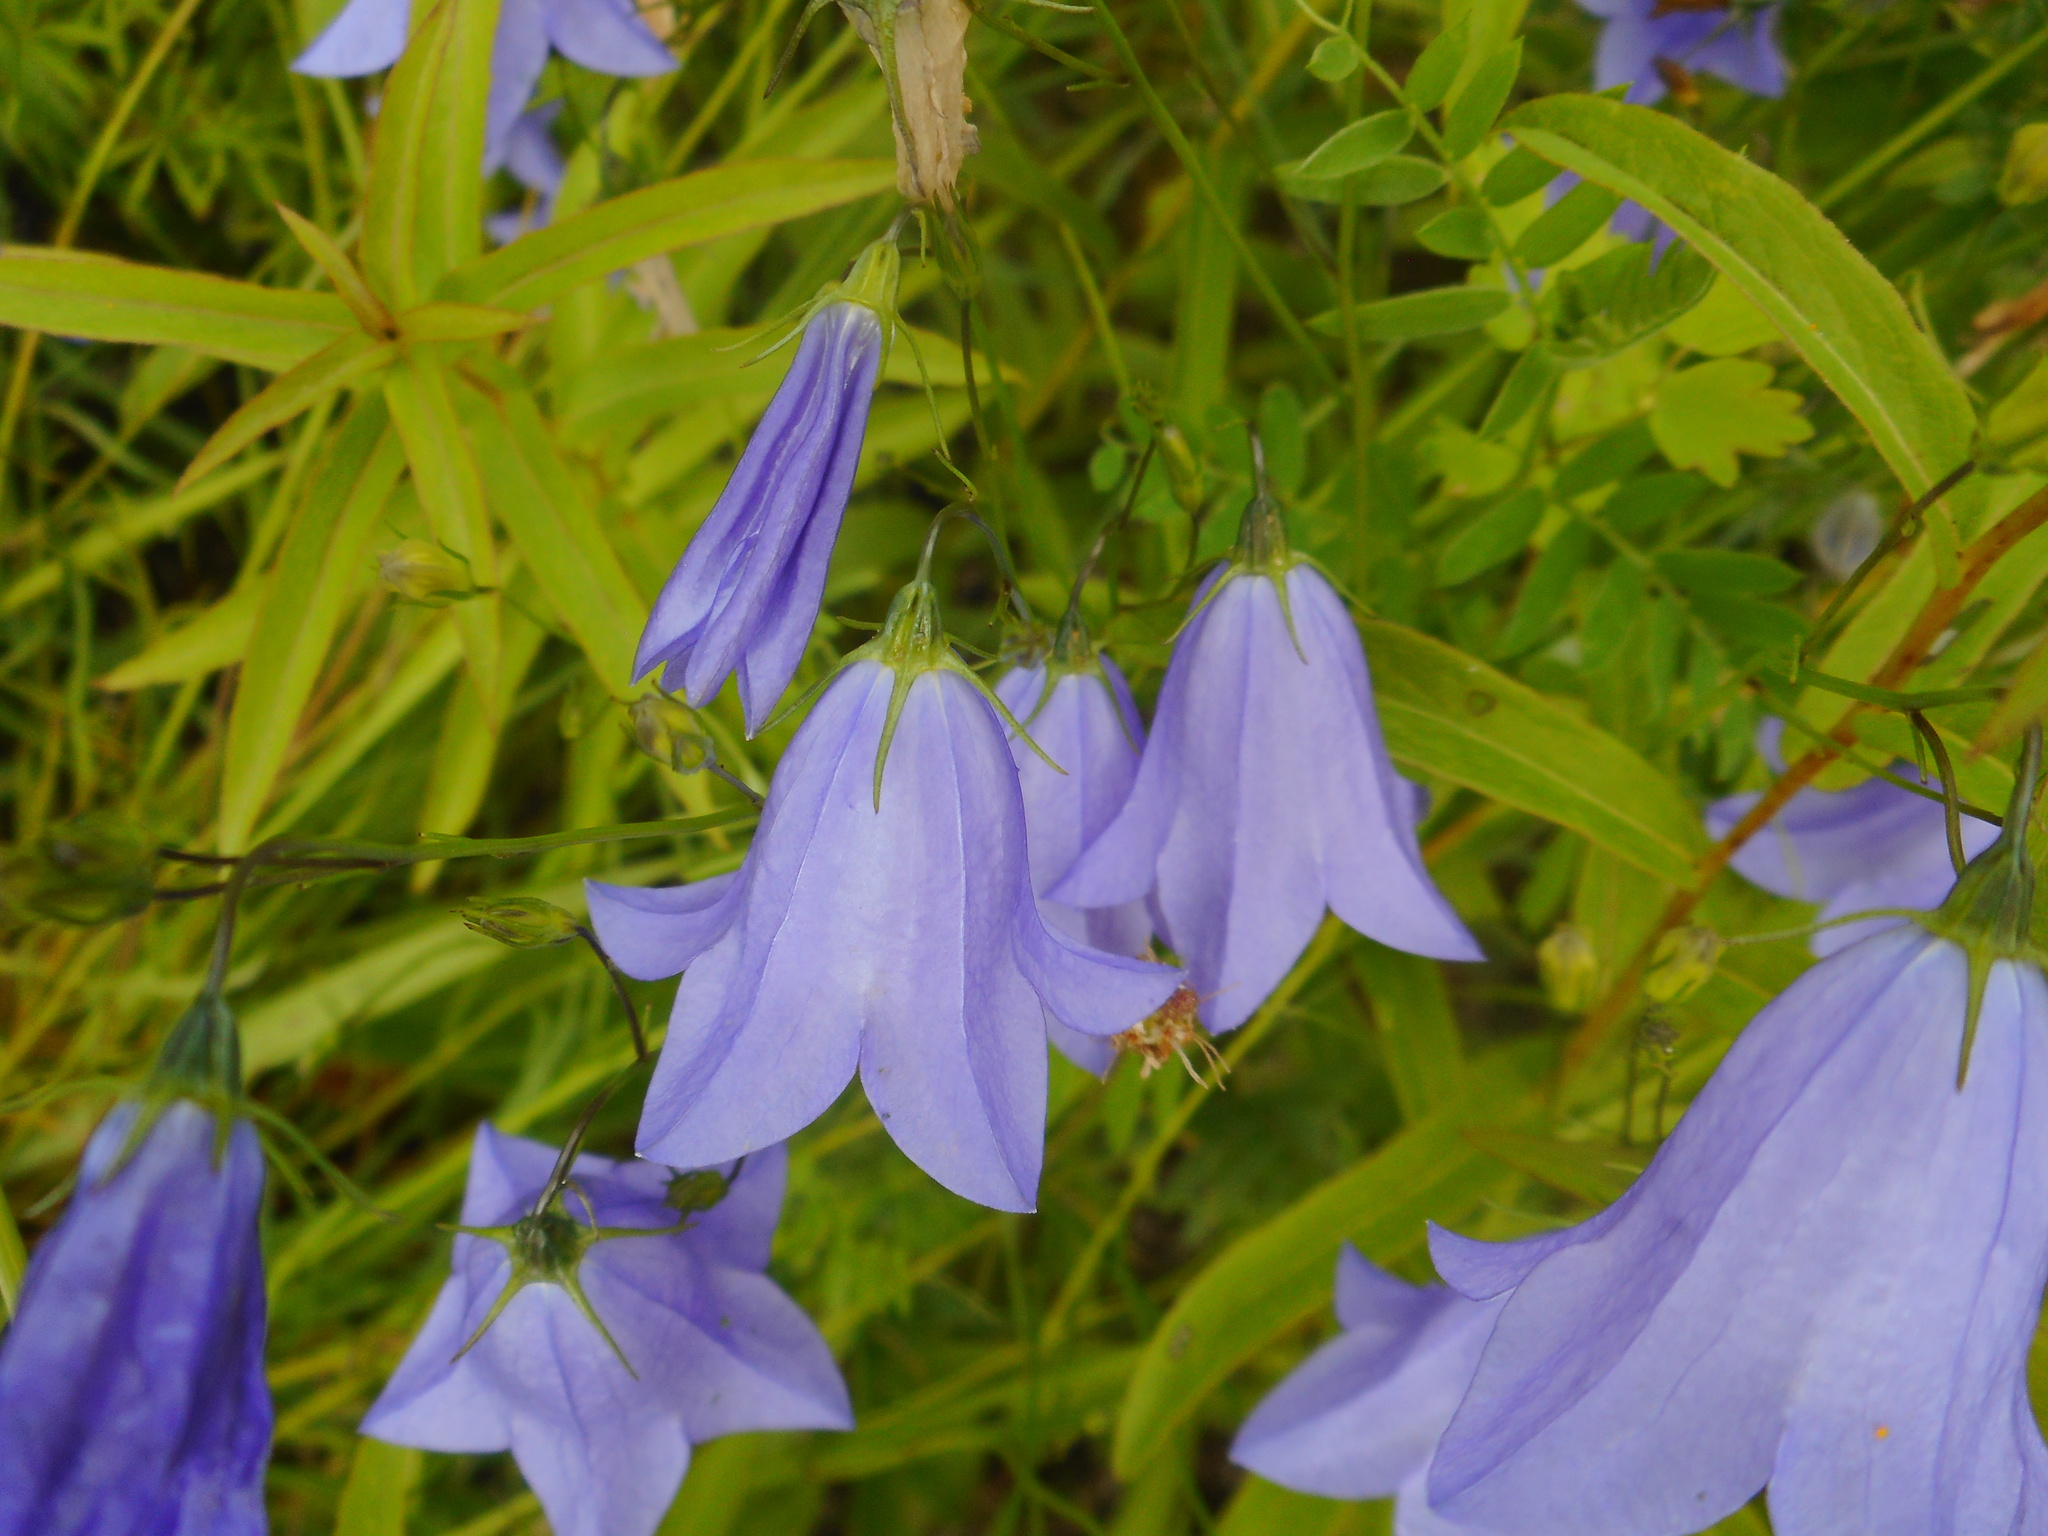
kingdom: Plantae
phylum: Tracheophyta
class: Magnoliopsida
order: Asterales
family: Campanulaceae
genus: Campanula
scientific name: Campanula rotundifolia
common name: Harebell
